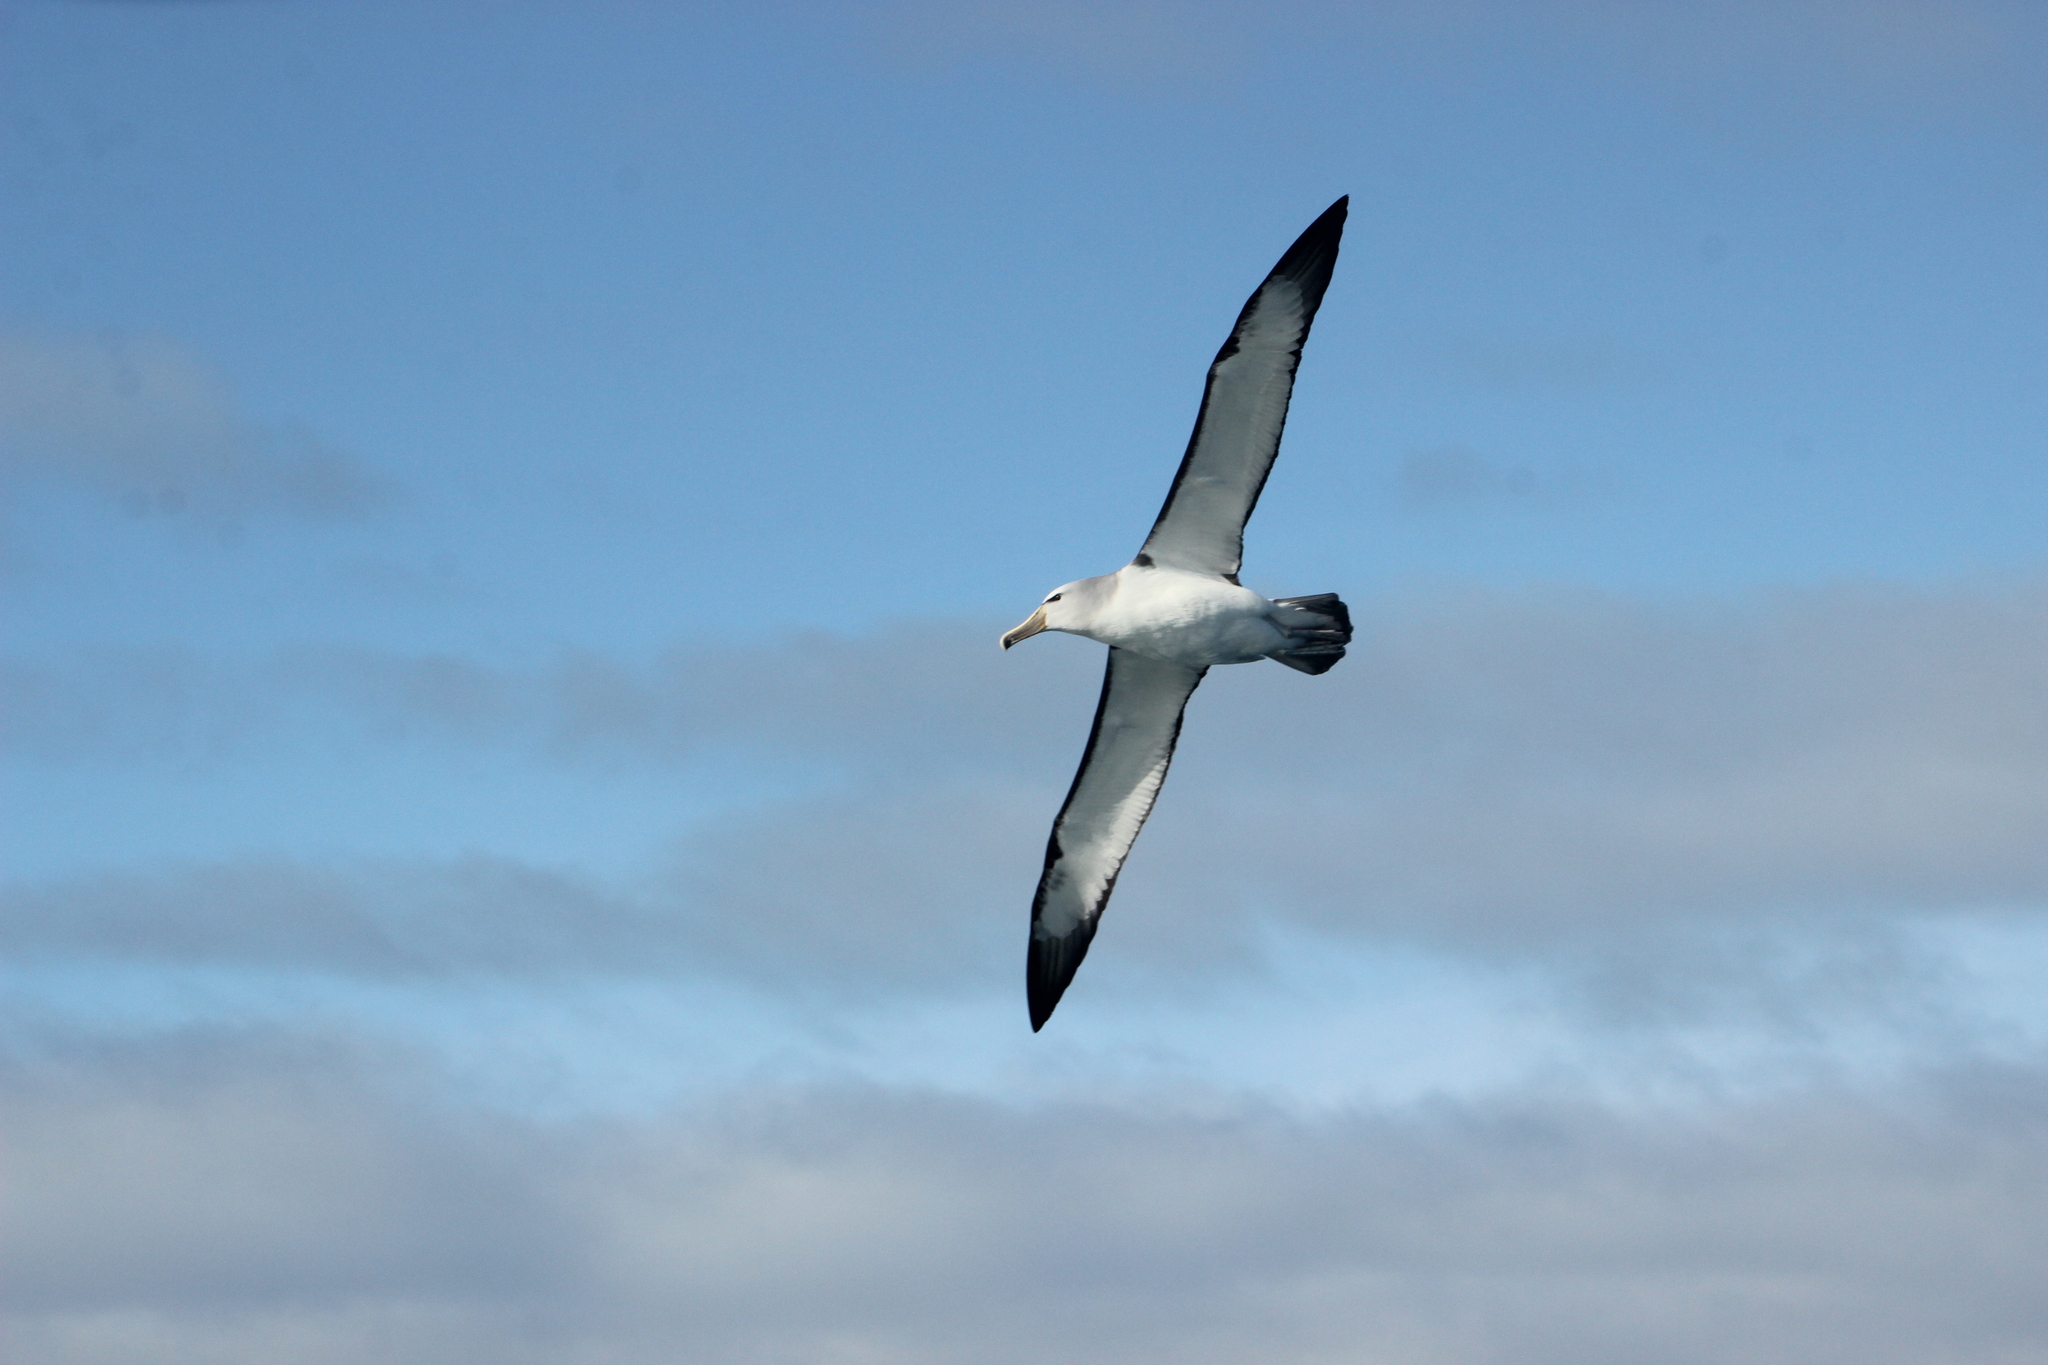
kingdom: Animalia
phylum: Chordata
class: Aves
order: Procellariiformes
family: Diomedeidae
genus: Thalassarche
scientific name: Thalassarche salvini
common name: Salvin's albatross
